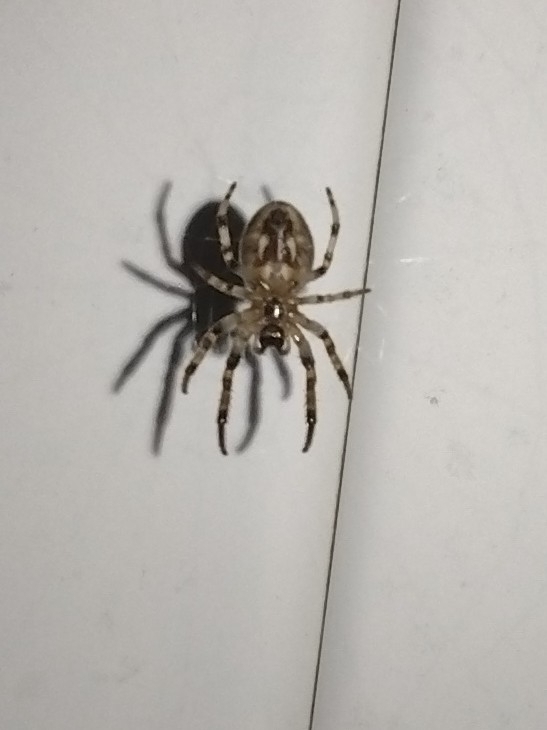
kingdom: Animalia
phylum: Arthropoda
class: Arachnida
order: Araneae
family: Araneidae
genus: Larinioides
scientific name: Larinioides cornutus
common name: Furrow orbweaver
